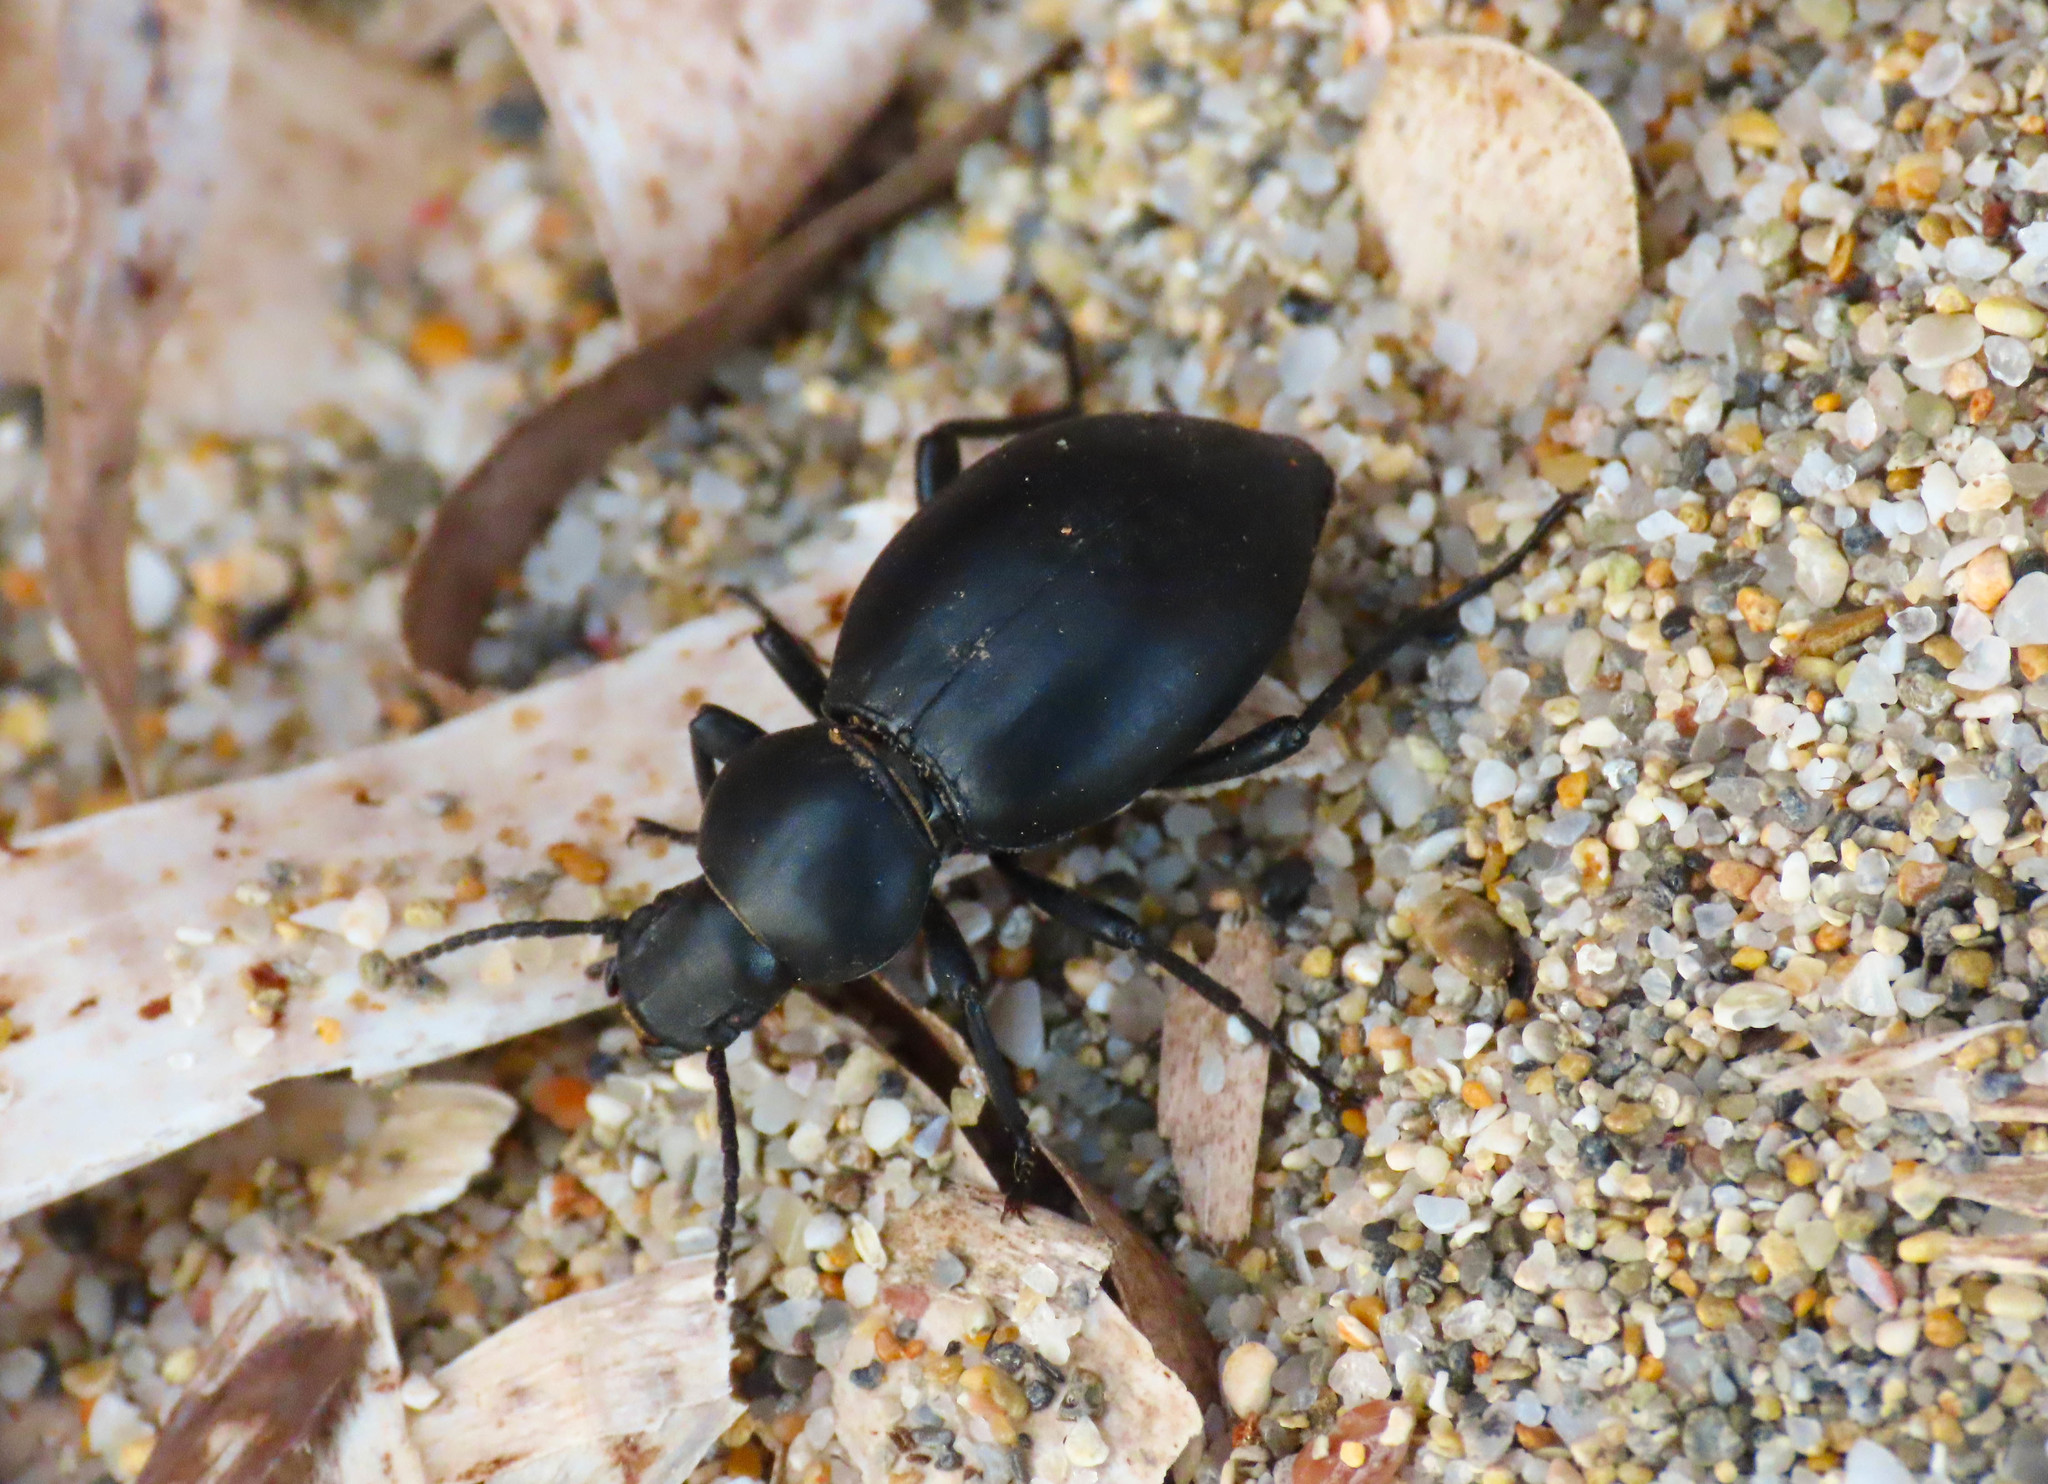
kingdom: Animalia
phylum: Arthropoda
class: Insecta
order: Coleoptera
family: Tenebrionidae
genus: Tentyria
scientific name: Tentyria grossa
